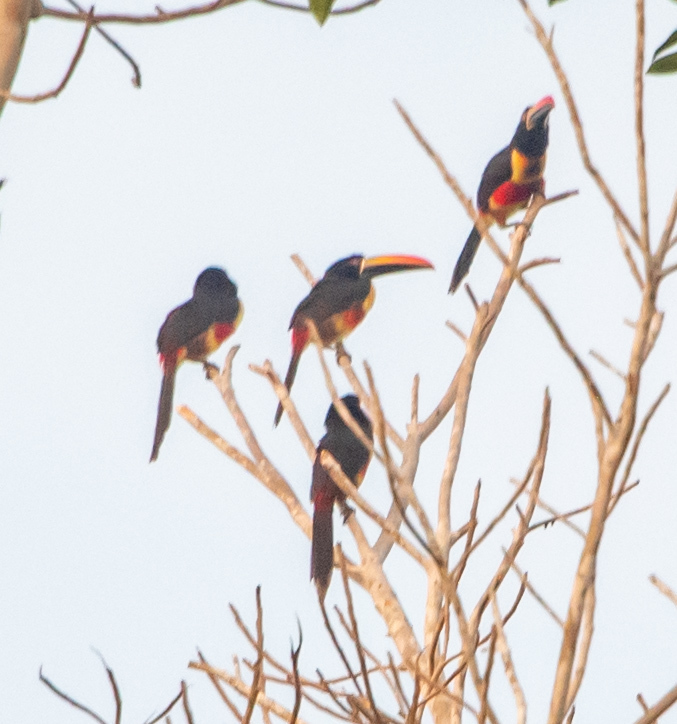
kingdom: Animalia
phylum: Chordata
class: Aves
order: Piciformes
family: Ramphastidae
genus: Pteroglossus
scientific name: Pteroglossus frantzii
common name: Fiery-billed aracari
